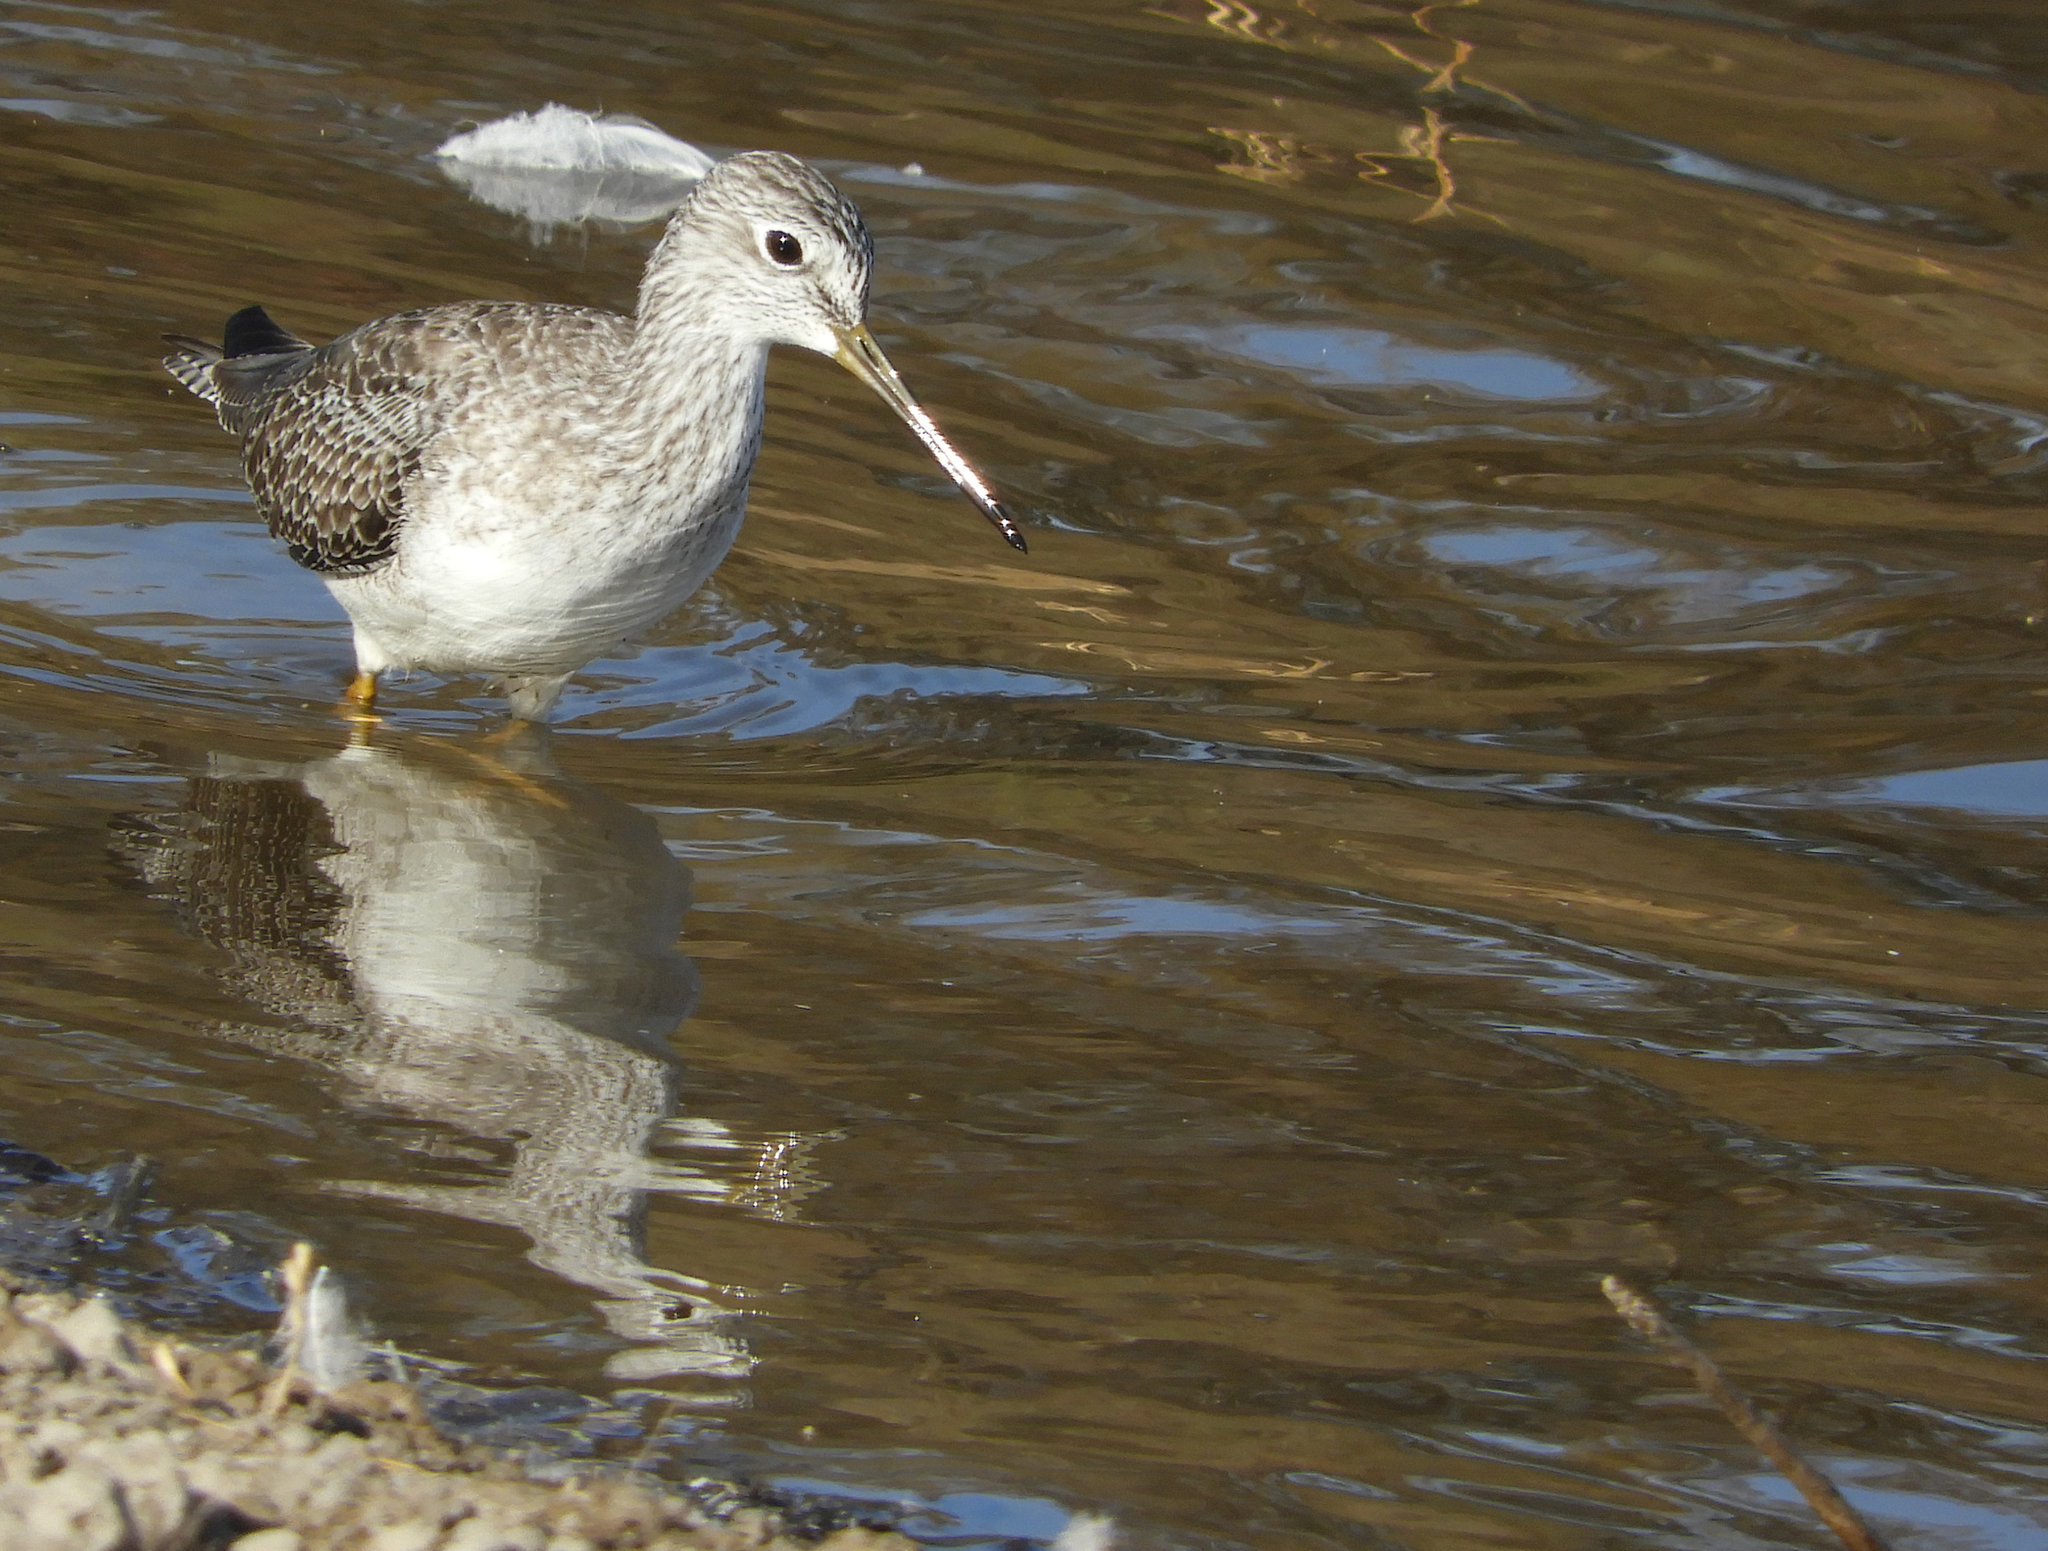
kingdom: Animalia
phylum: Chordata
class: Aves
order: Charadriiformes
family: Scolopacidae
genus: Tringa
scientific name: Tringa melanoleuca
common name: Greater yellowlegs
